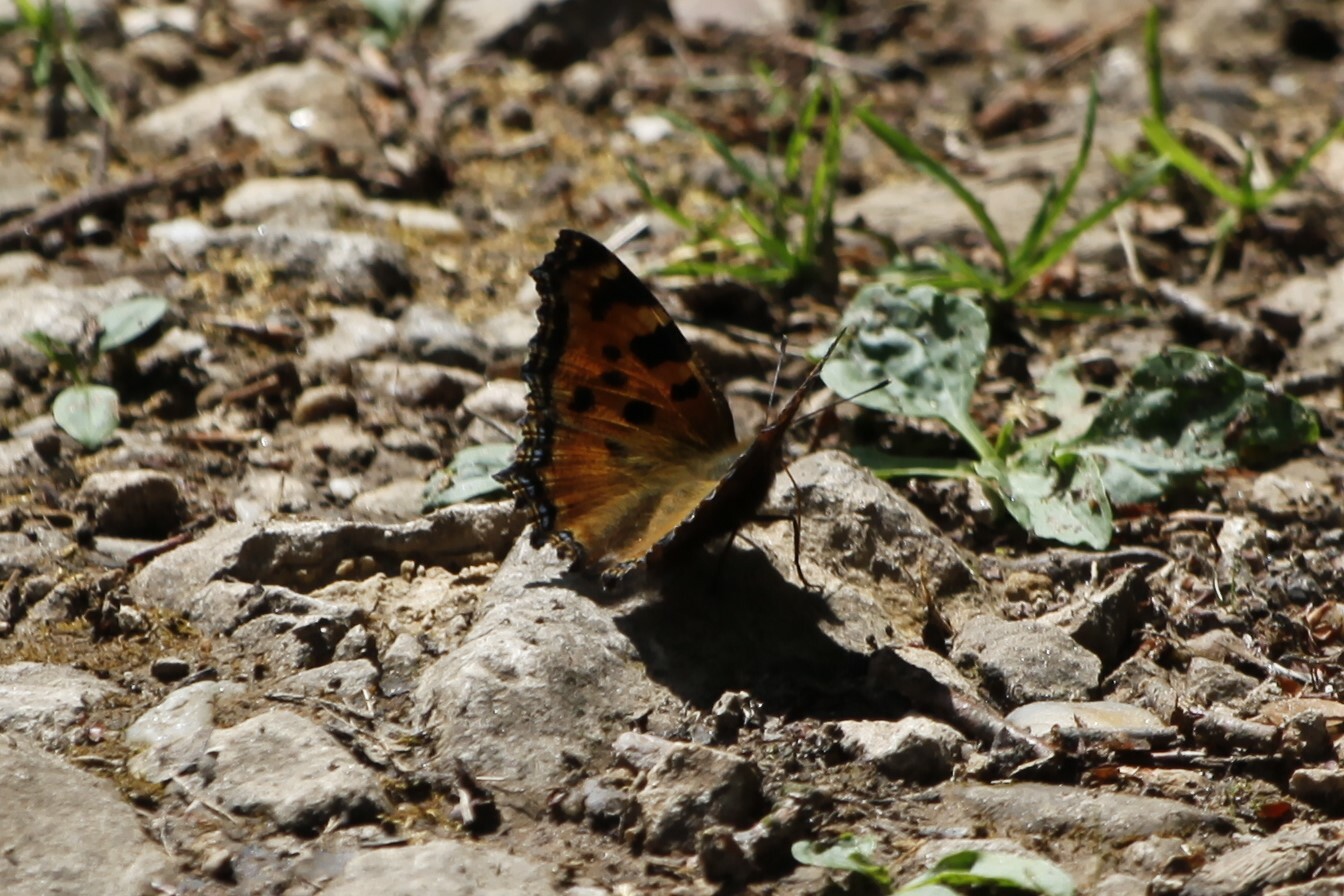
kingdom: Animalia
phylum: Arthropoda
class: Insecta
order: Lepidoptera
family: Nymphalidae
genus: Nymphalis
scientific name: Nymphalis polychloros
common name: Large tortoiseshell
